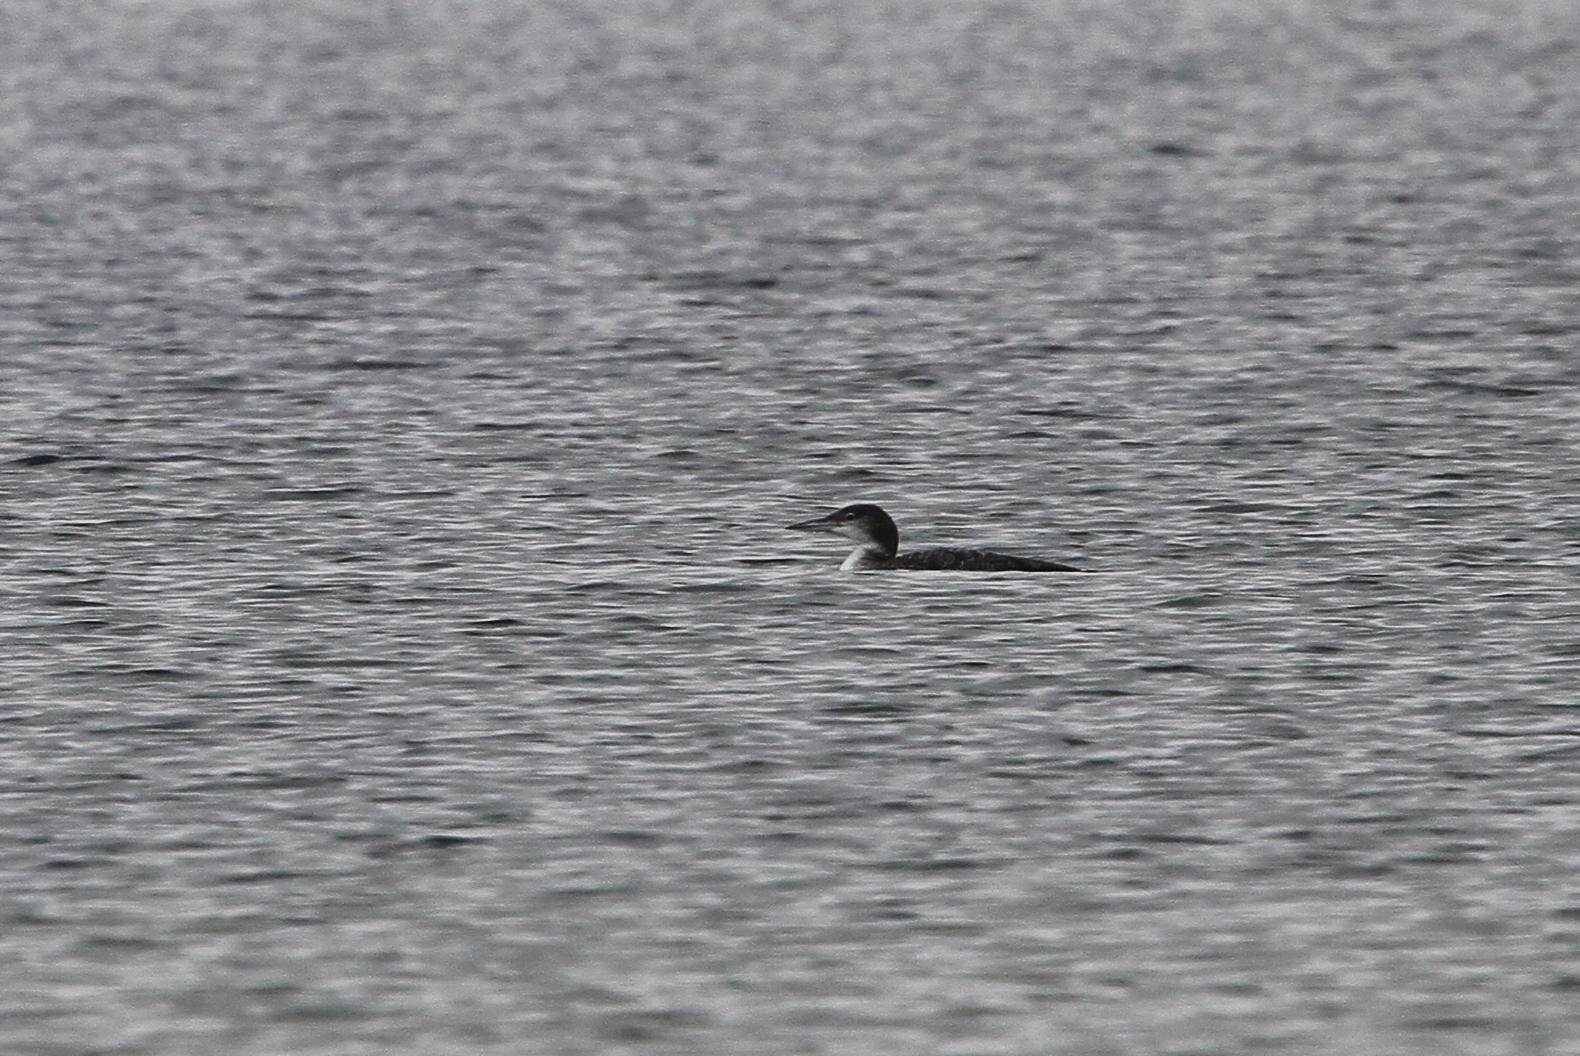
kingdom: Animalia
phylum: Chordata
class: Aves
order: Gaviiformes
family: Gaviidae
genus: Gavia
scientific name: Gavia immer
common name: Common loon
